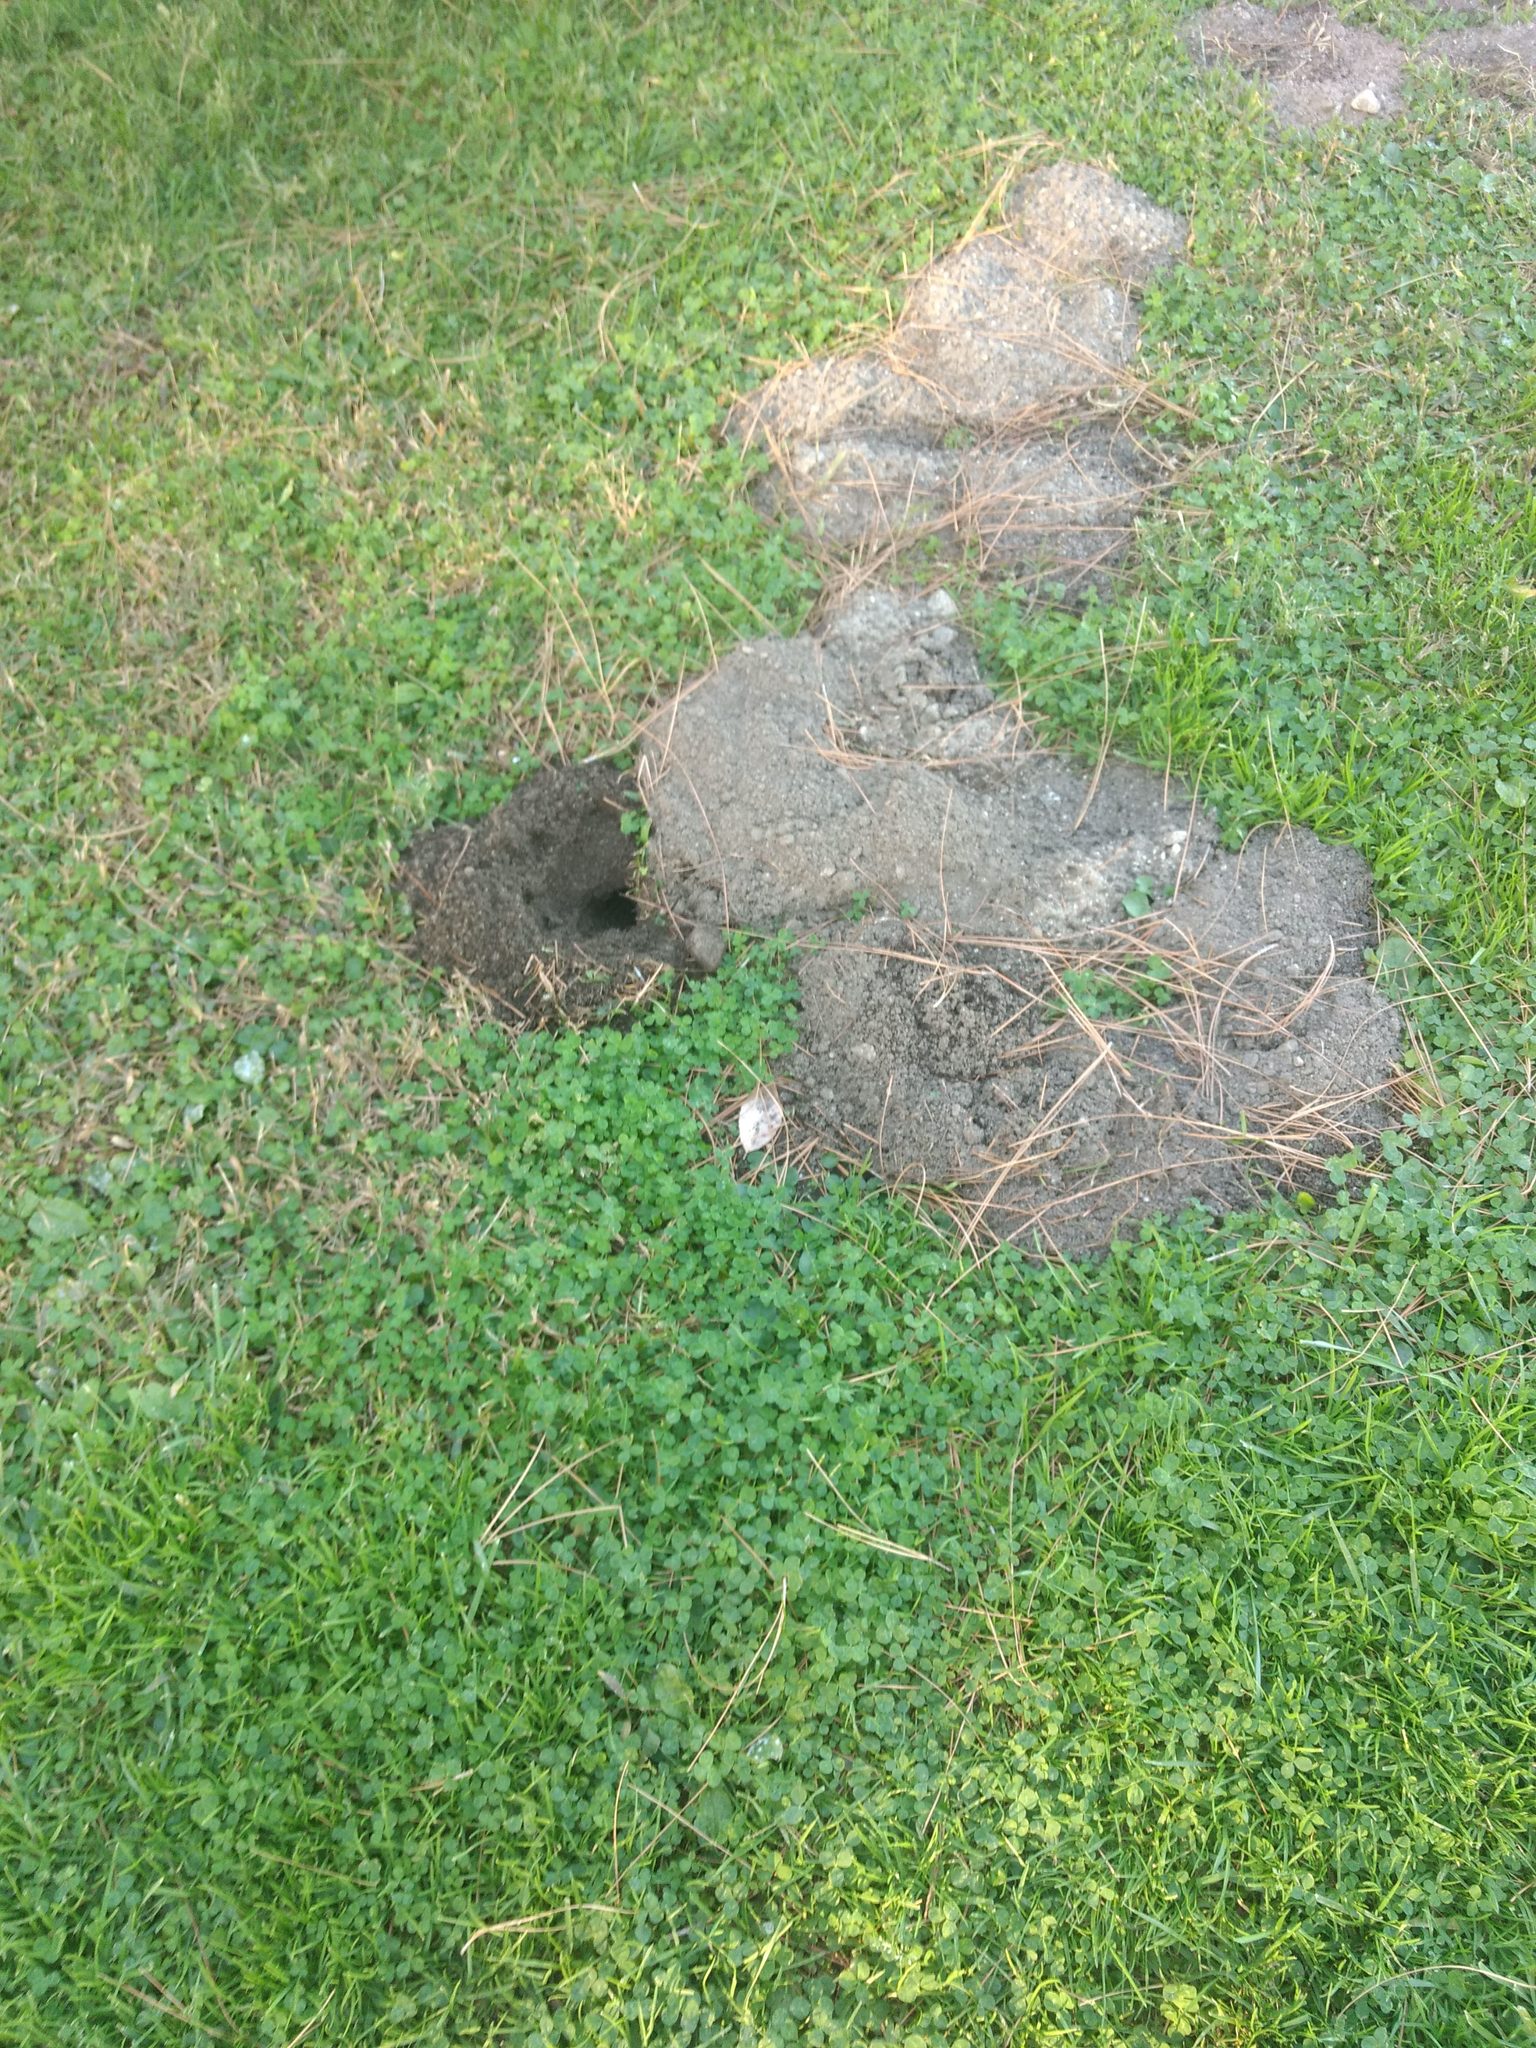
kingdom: Animalia
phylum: Chordata
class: Mammalia
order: Rodentia
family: Geomyidae
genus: Thomomys
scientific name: Thomomys bottae
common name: Botta's pocket gopher
